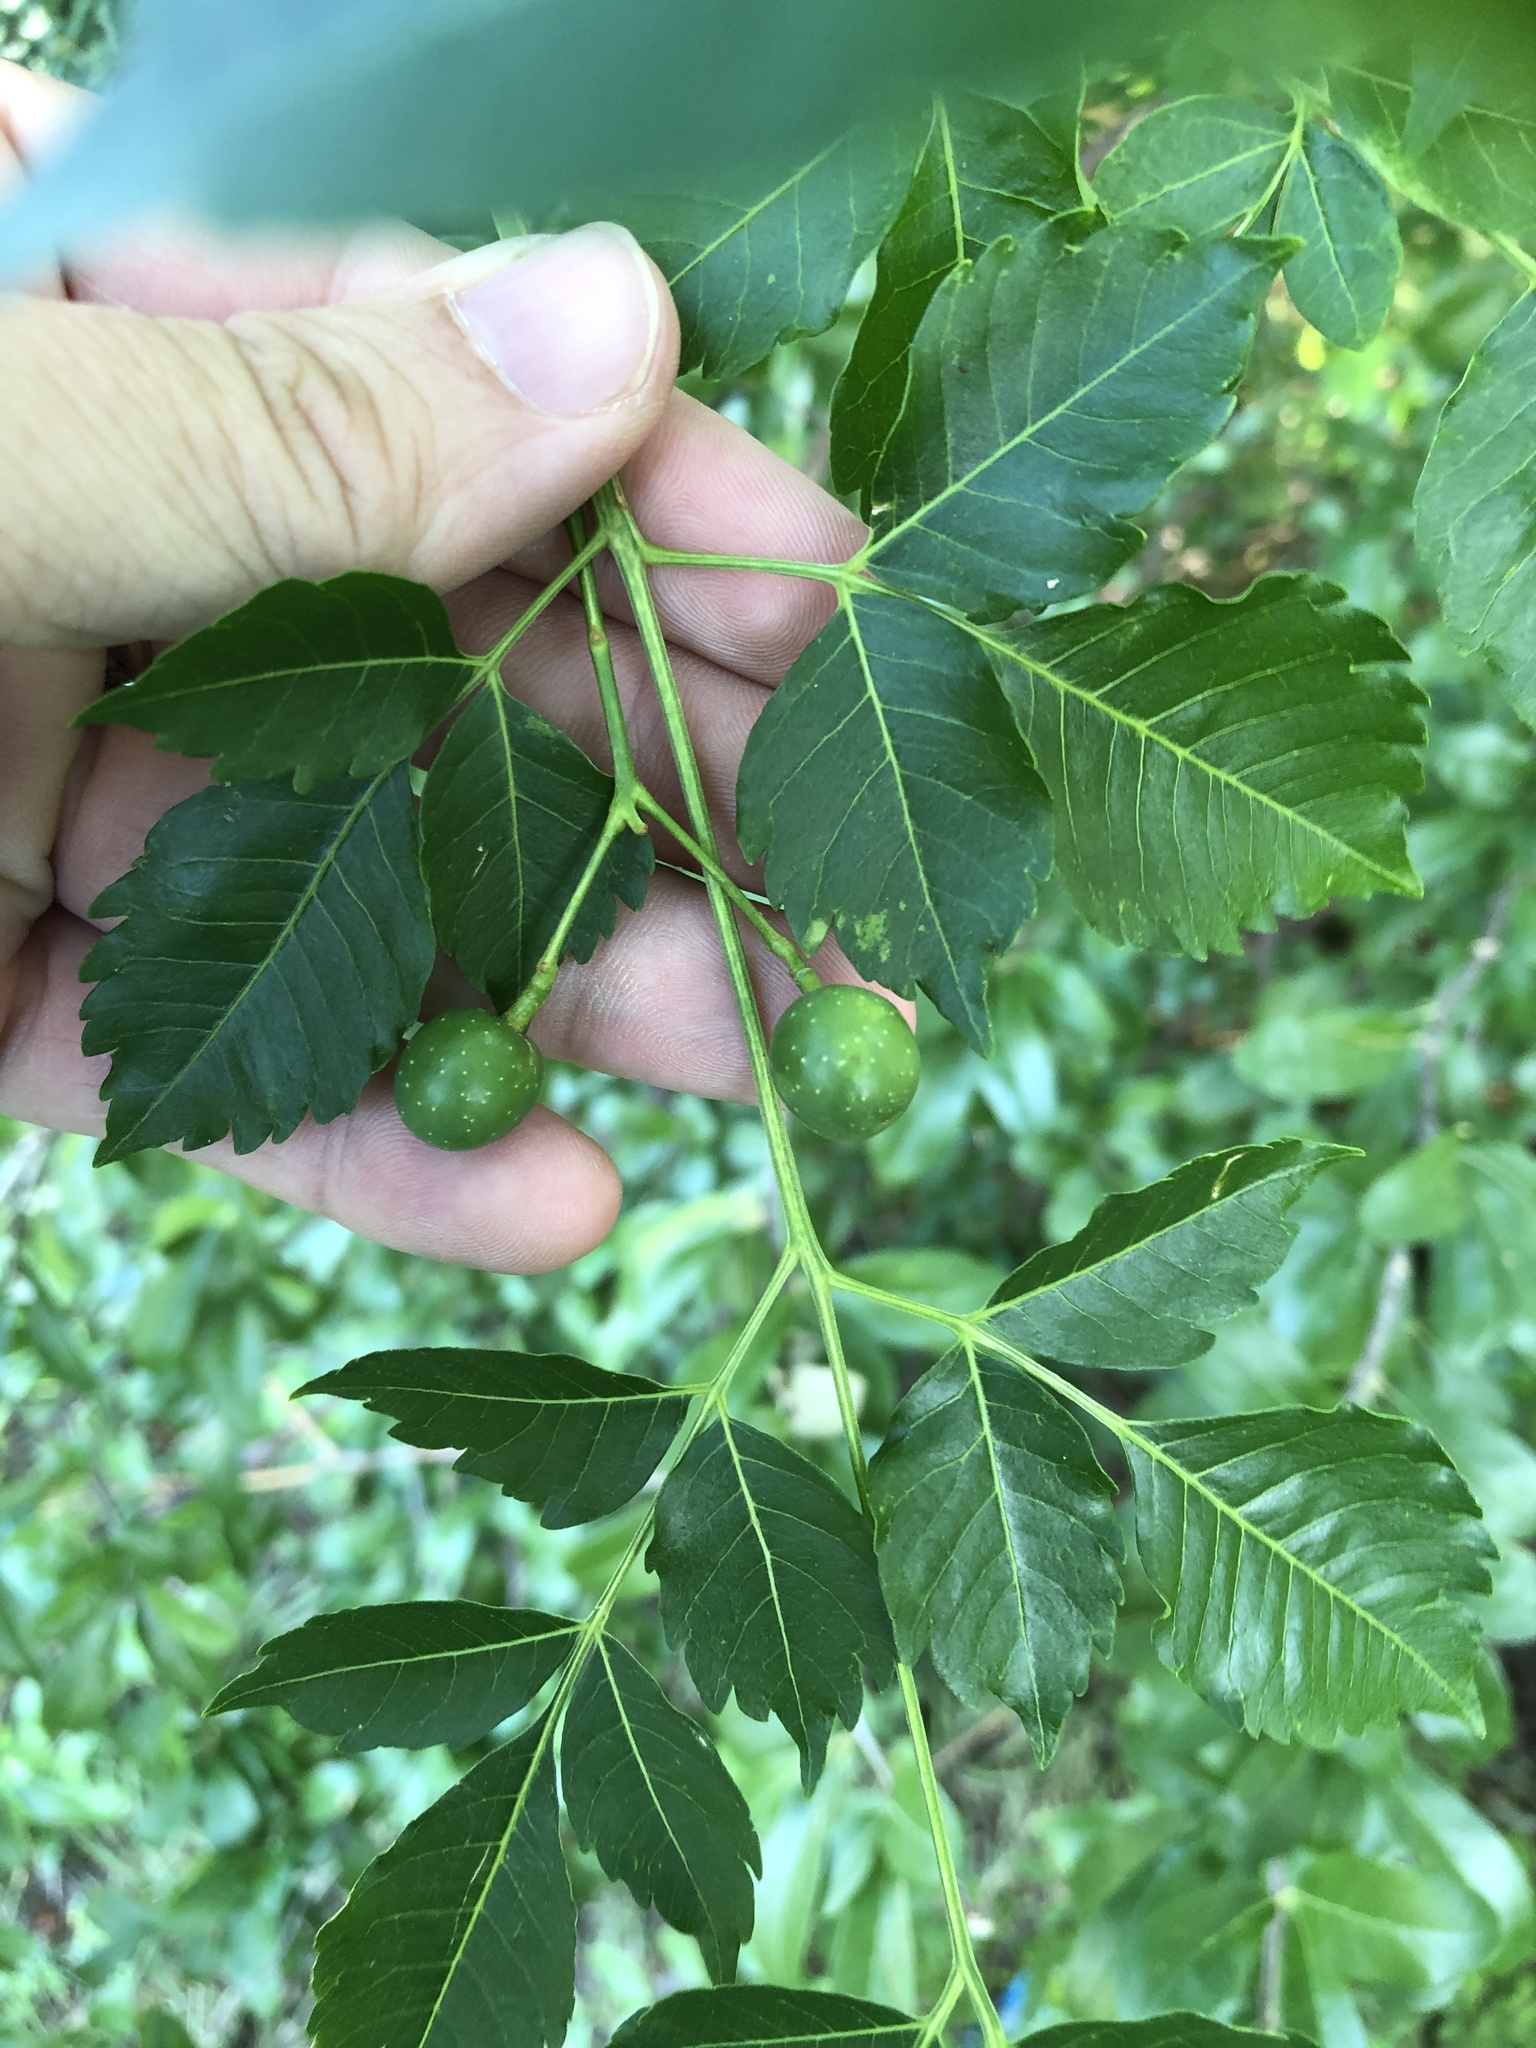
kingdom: Plantae
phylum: Tracheophyta
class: Magnoliopsida
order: Sapindales
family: Meliaceae
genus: Melia
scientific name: Melia azedarach
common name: Chinaberrytree
